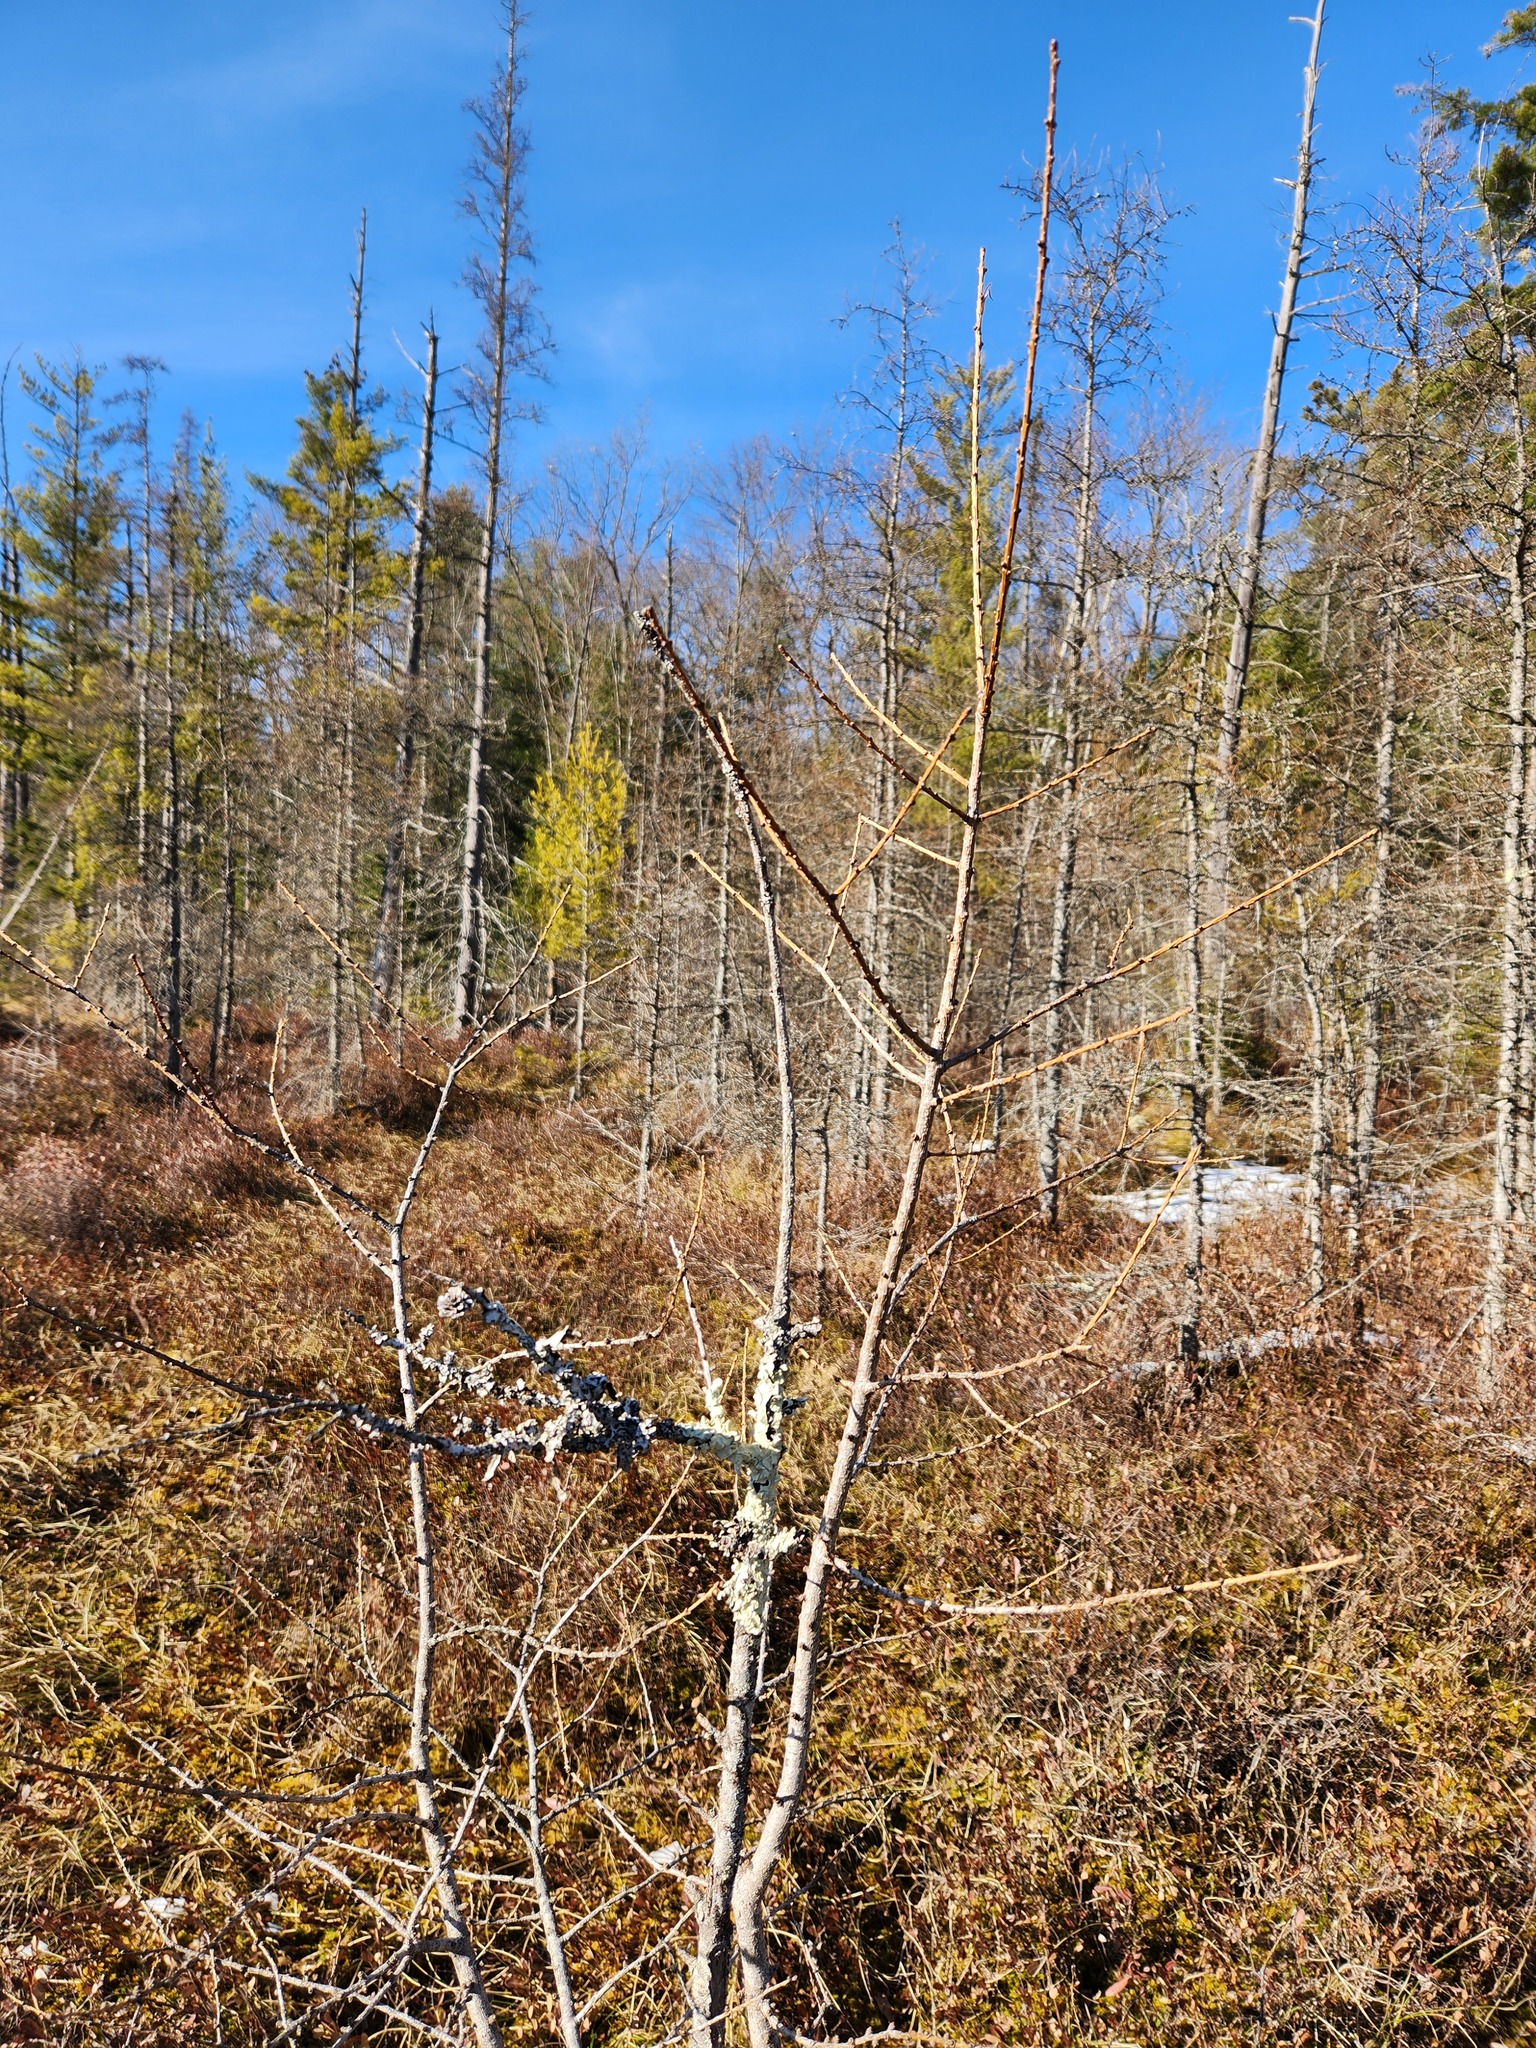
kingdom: Plantae
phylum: Tracheophyta
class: Pinopsida
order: Pinales
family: Pinaceae
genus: Larix
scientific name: Larix laricina
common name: American larch
